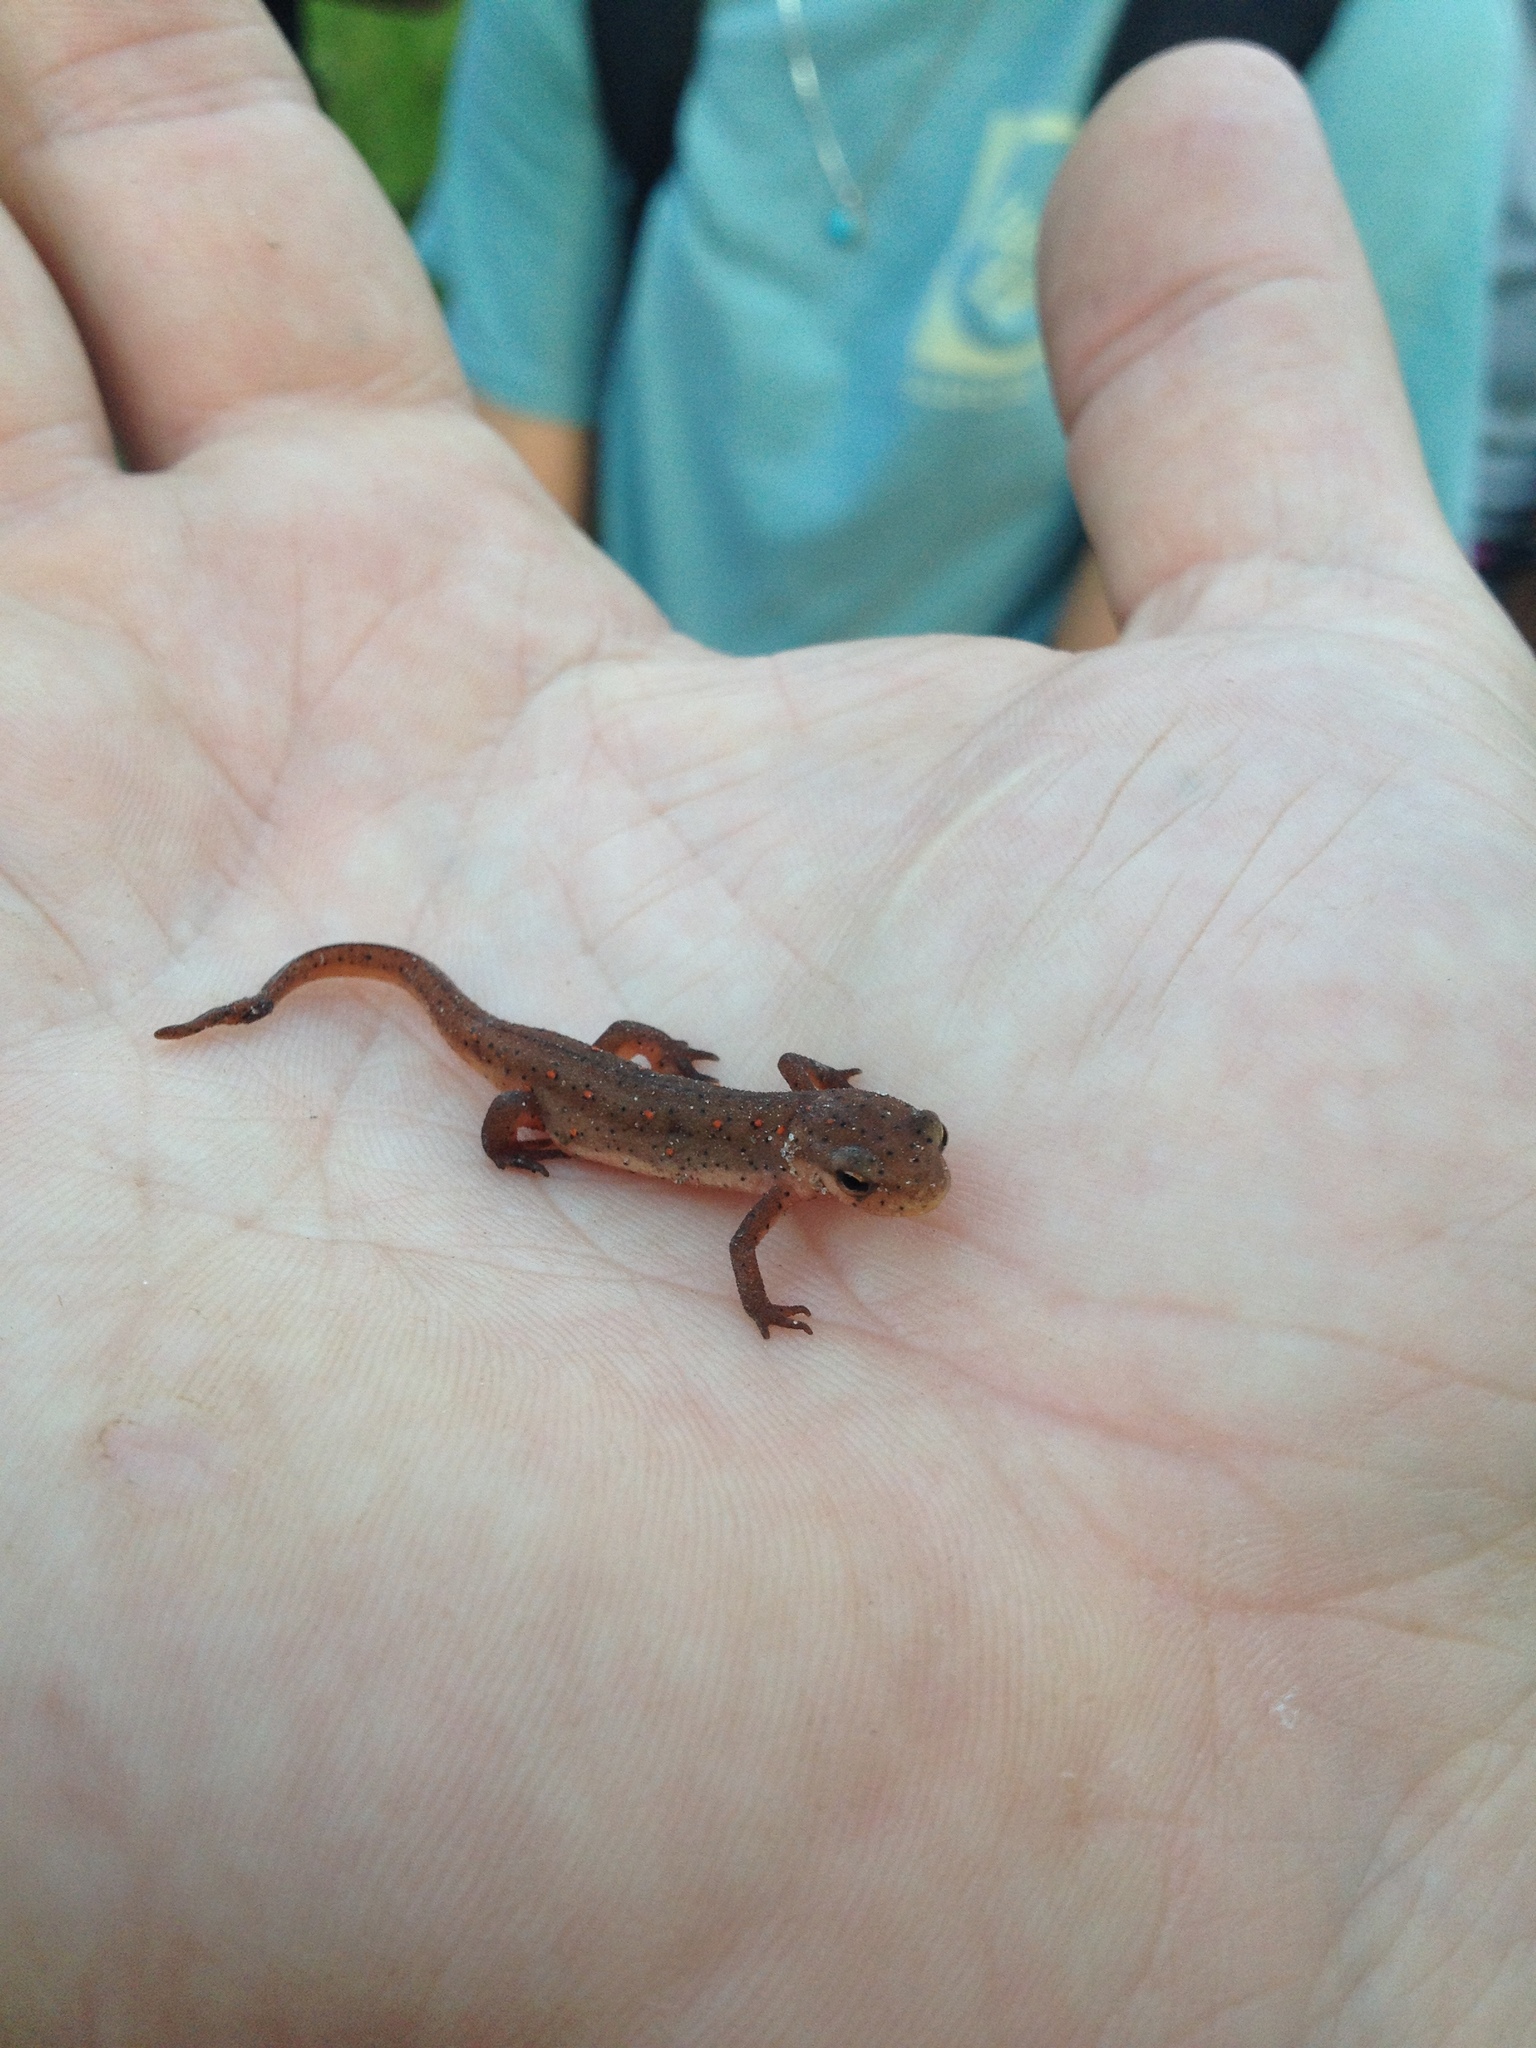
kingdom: Animalia
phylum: Chordata
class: Amphibia
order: Caudata
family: Salamandridae
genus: Notophthalmus
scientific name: Notophthalmus viridescens
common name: Eastern newt
